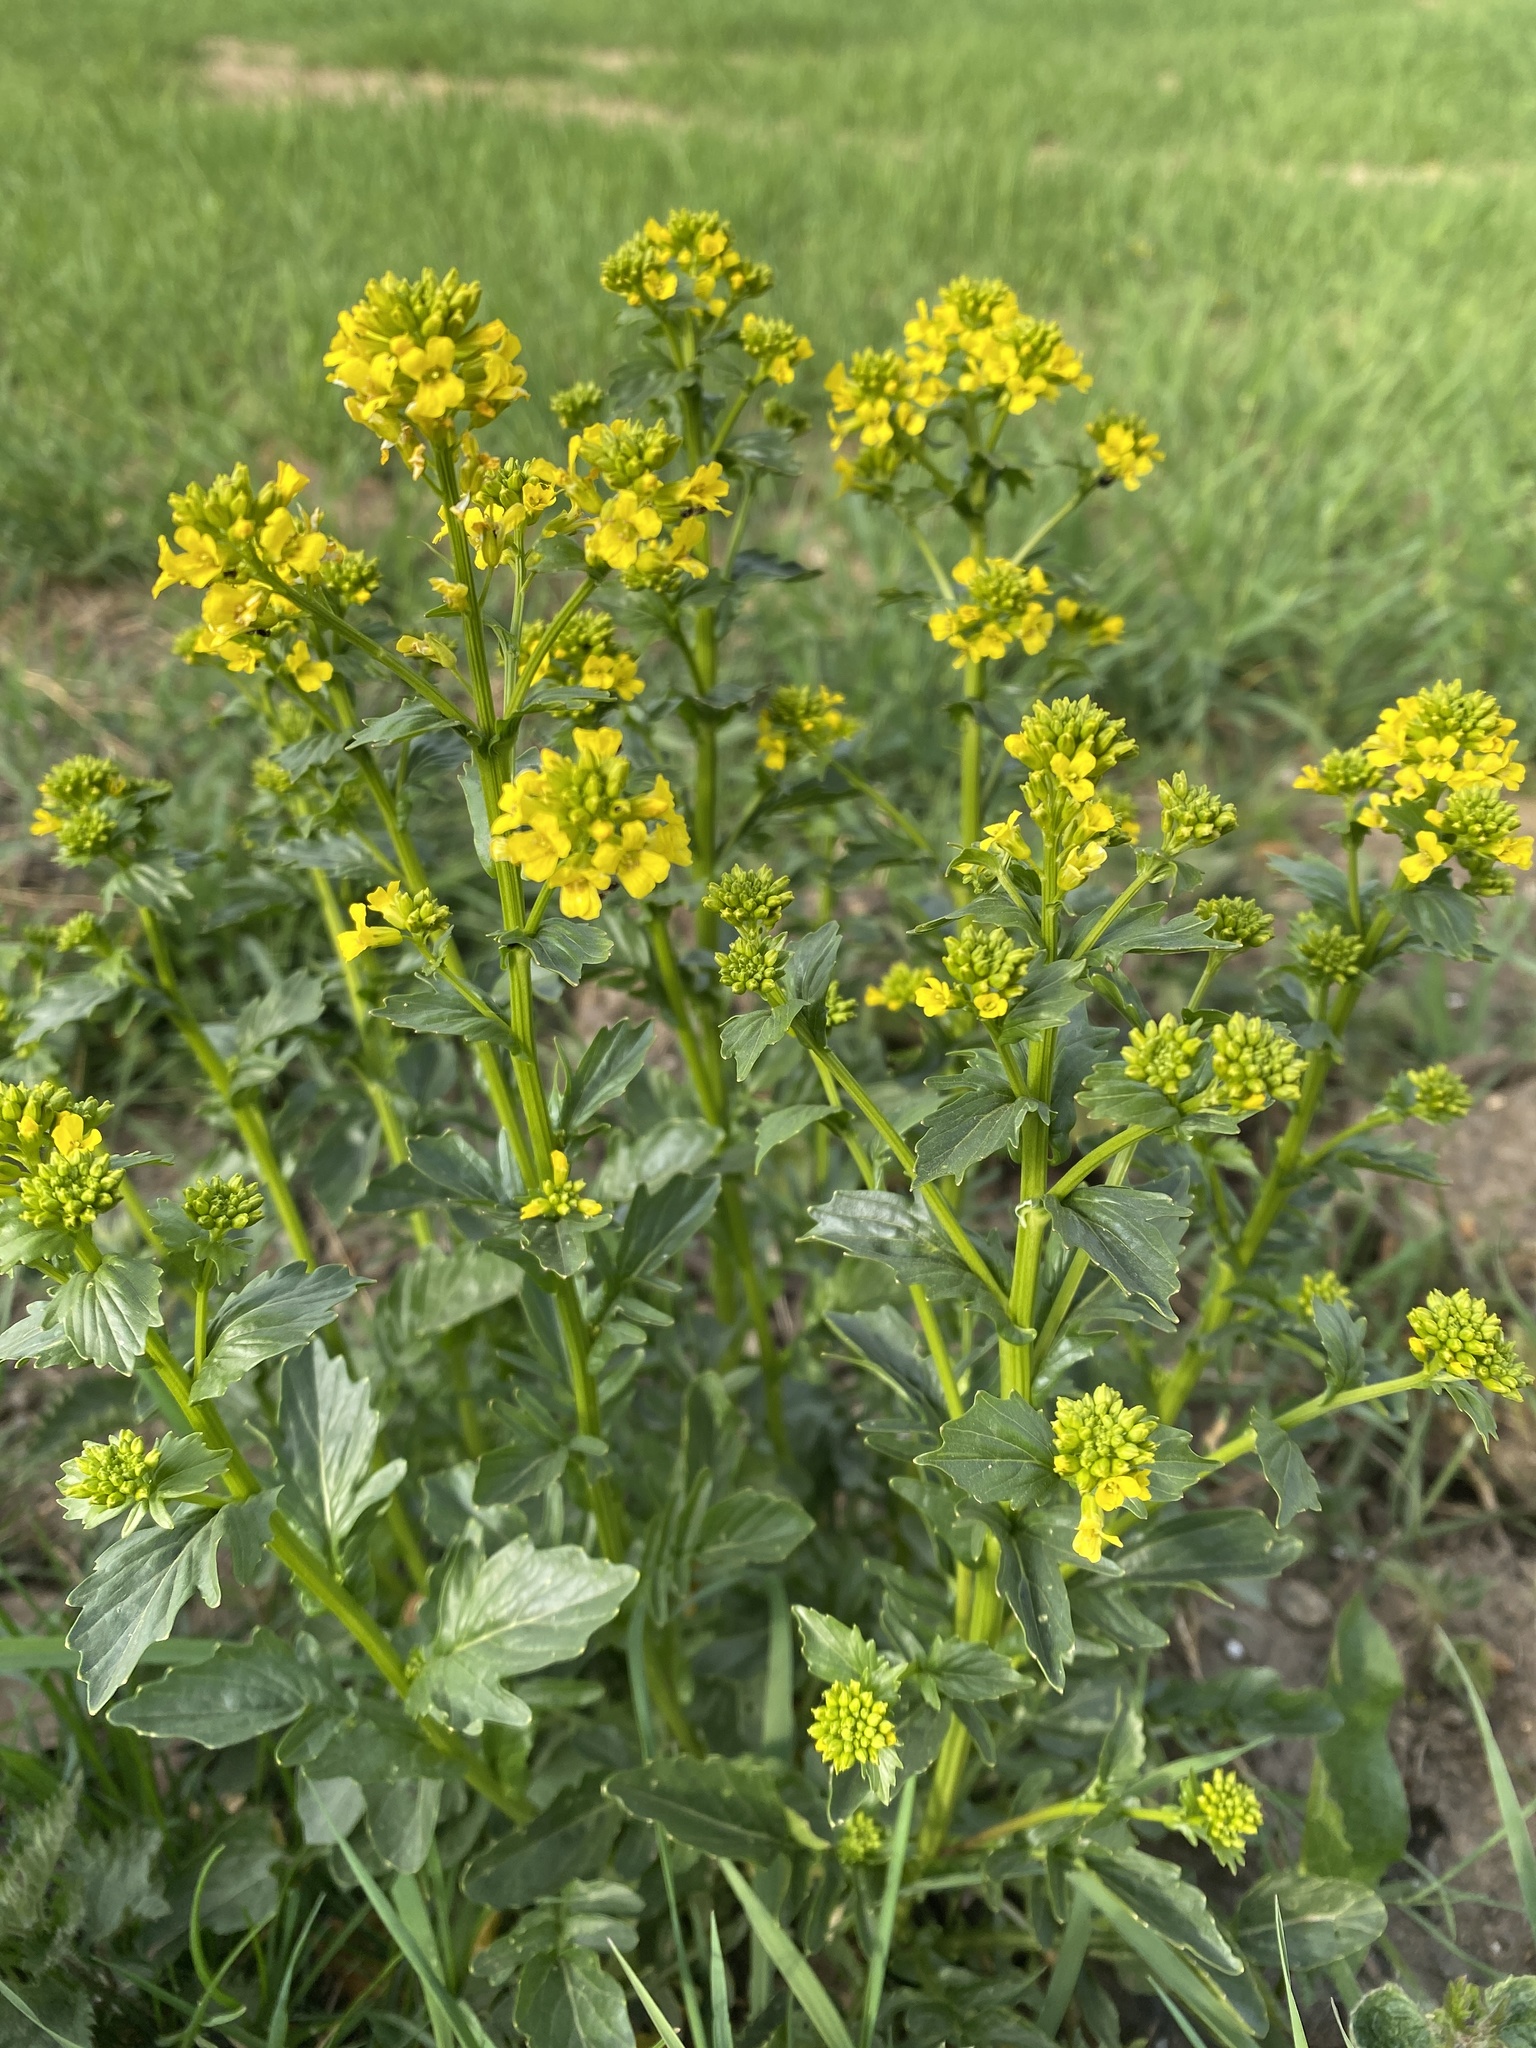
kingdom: Plantae
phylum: Tracheophyta
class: Magnoliopsida
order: Brassicales
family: Brassicaceae
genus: Barbarea
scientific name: Barbarea vulgaris
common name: Cressy-greens
